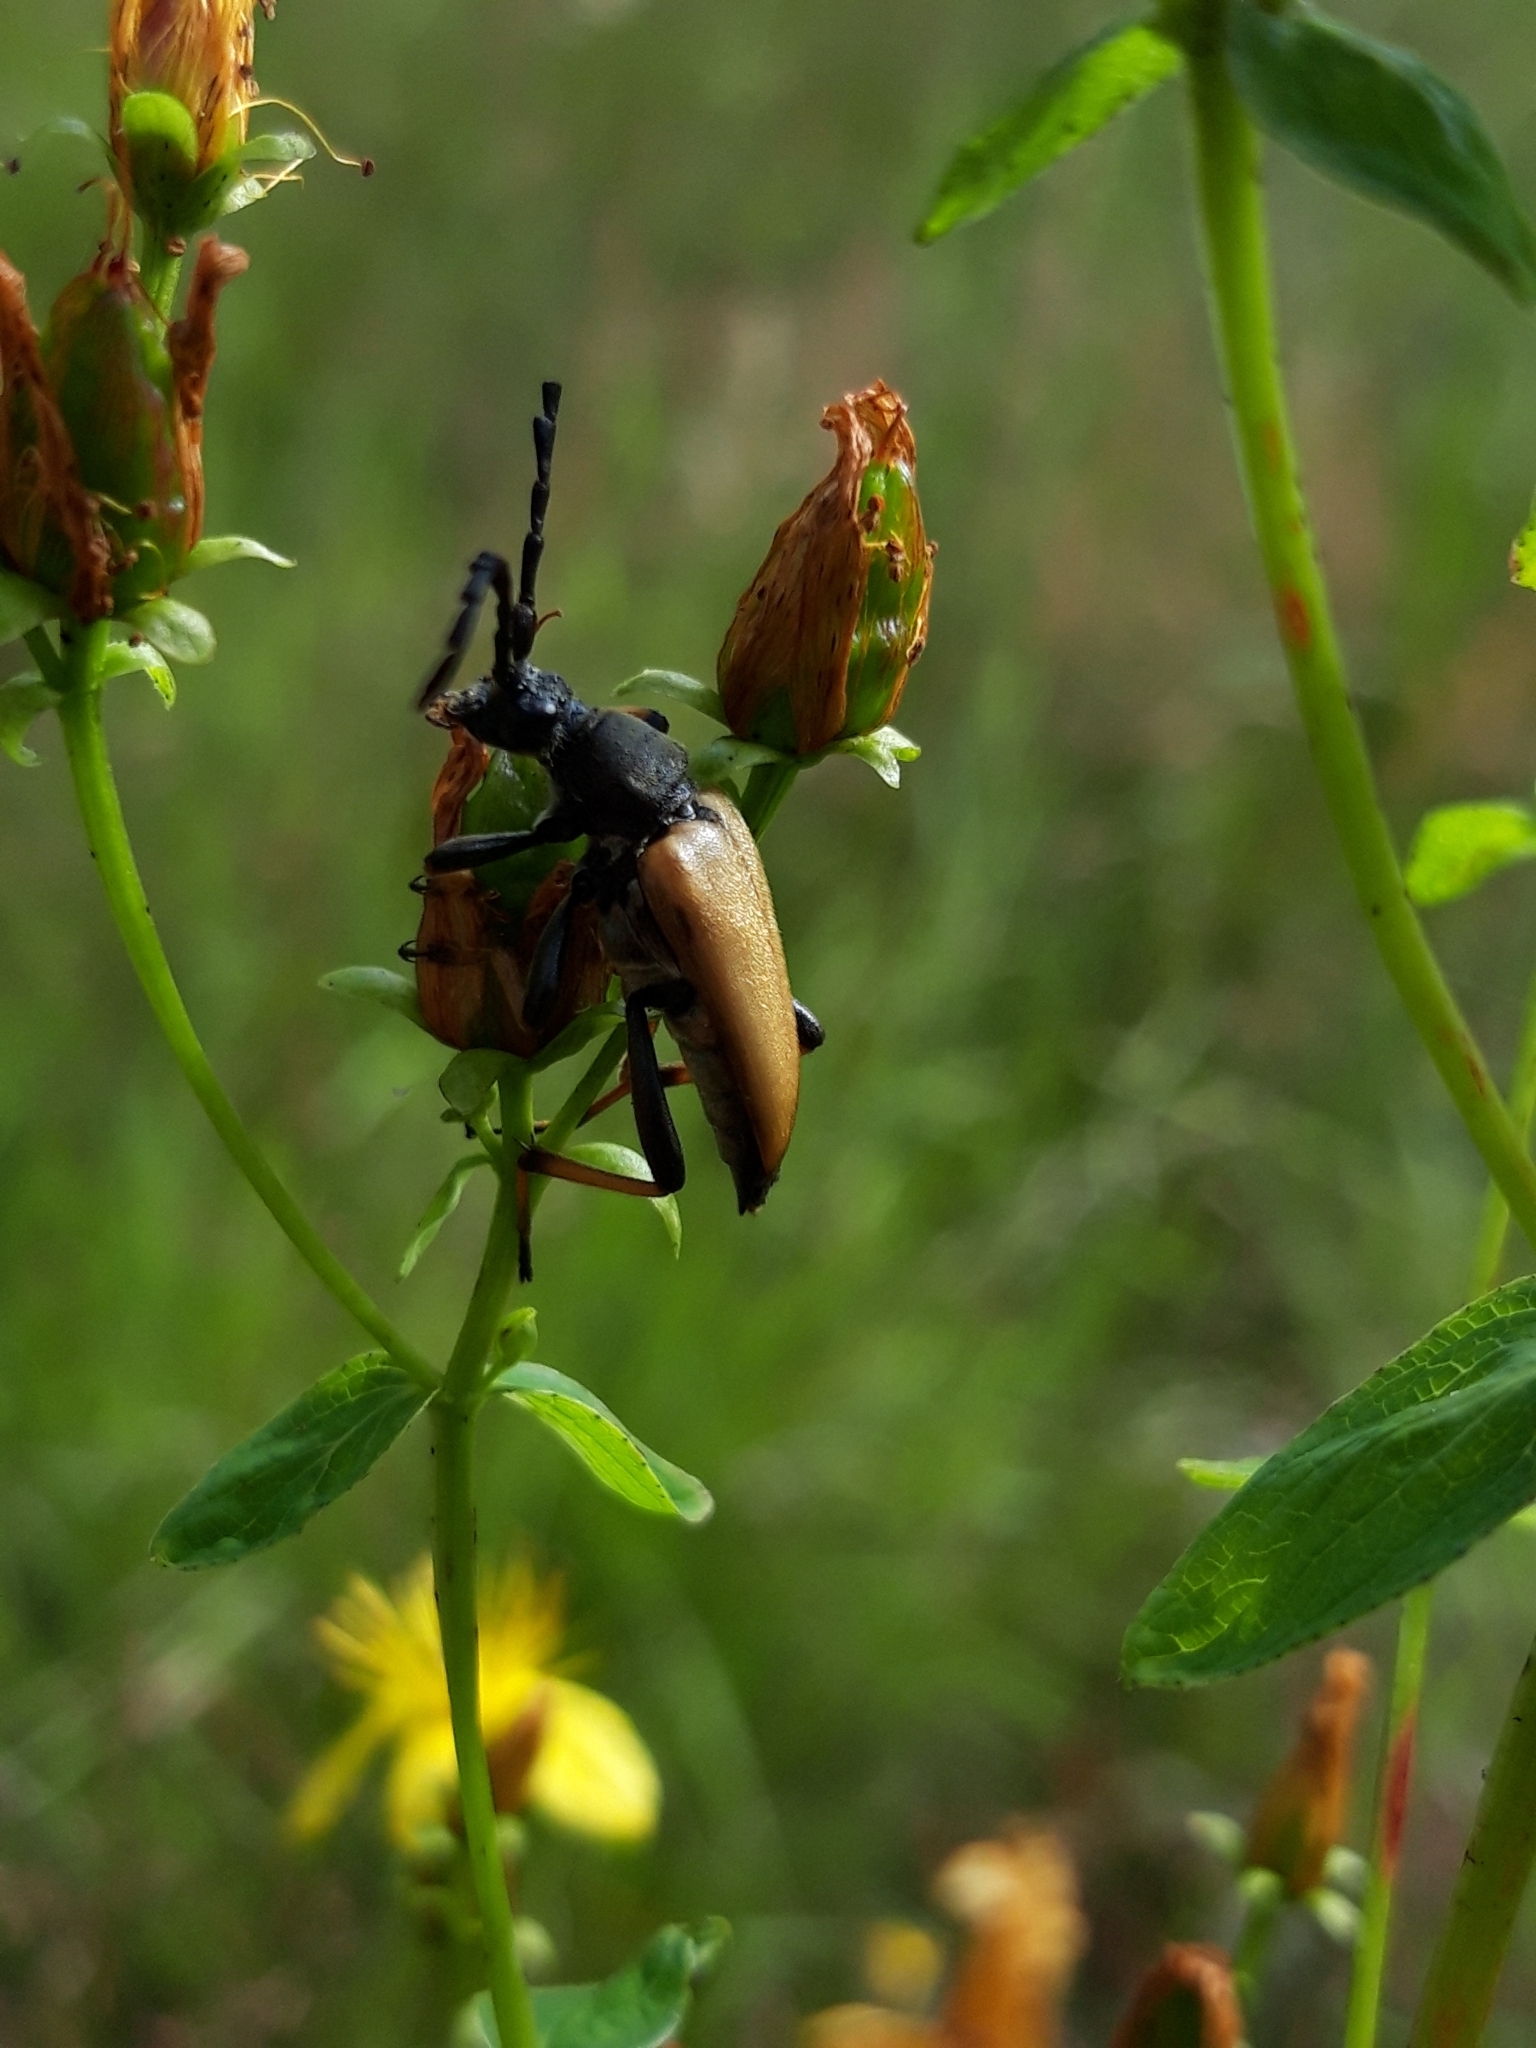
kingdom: Animalia
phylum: Arthropoda
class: Insecta
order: Coleoptera
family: Cerambycidae
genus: Stictoleptura
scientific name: Stictoleptura rubra
